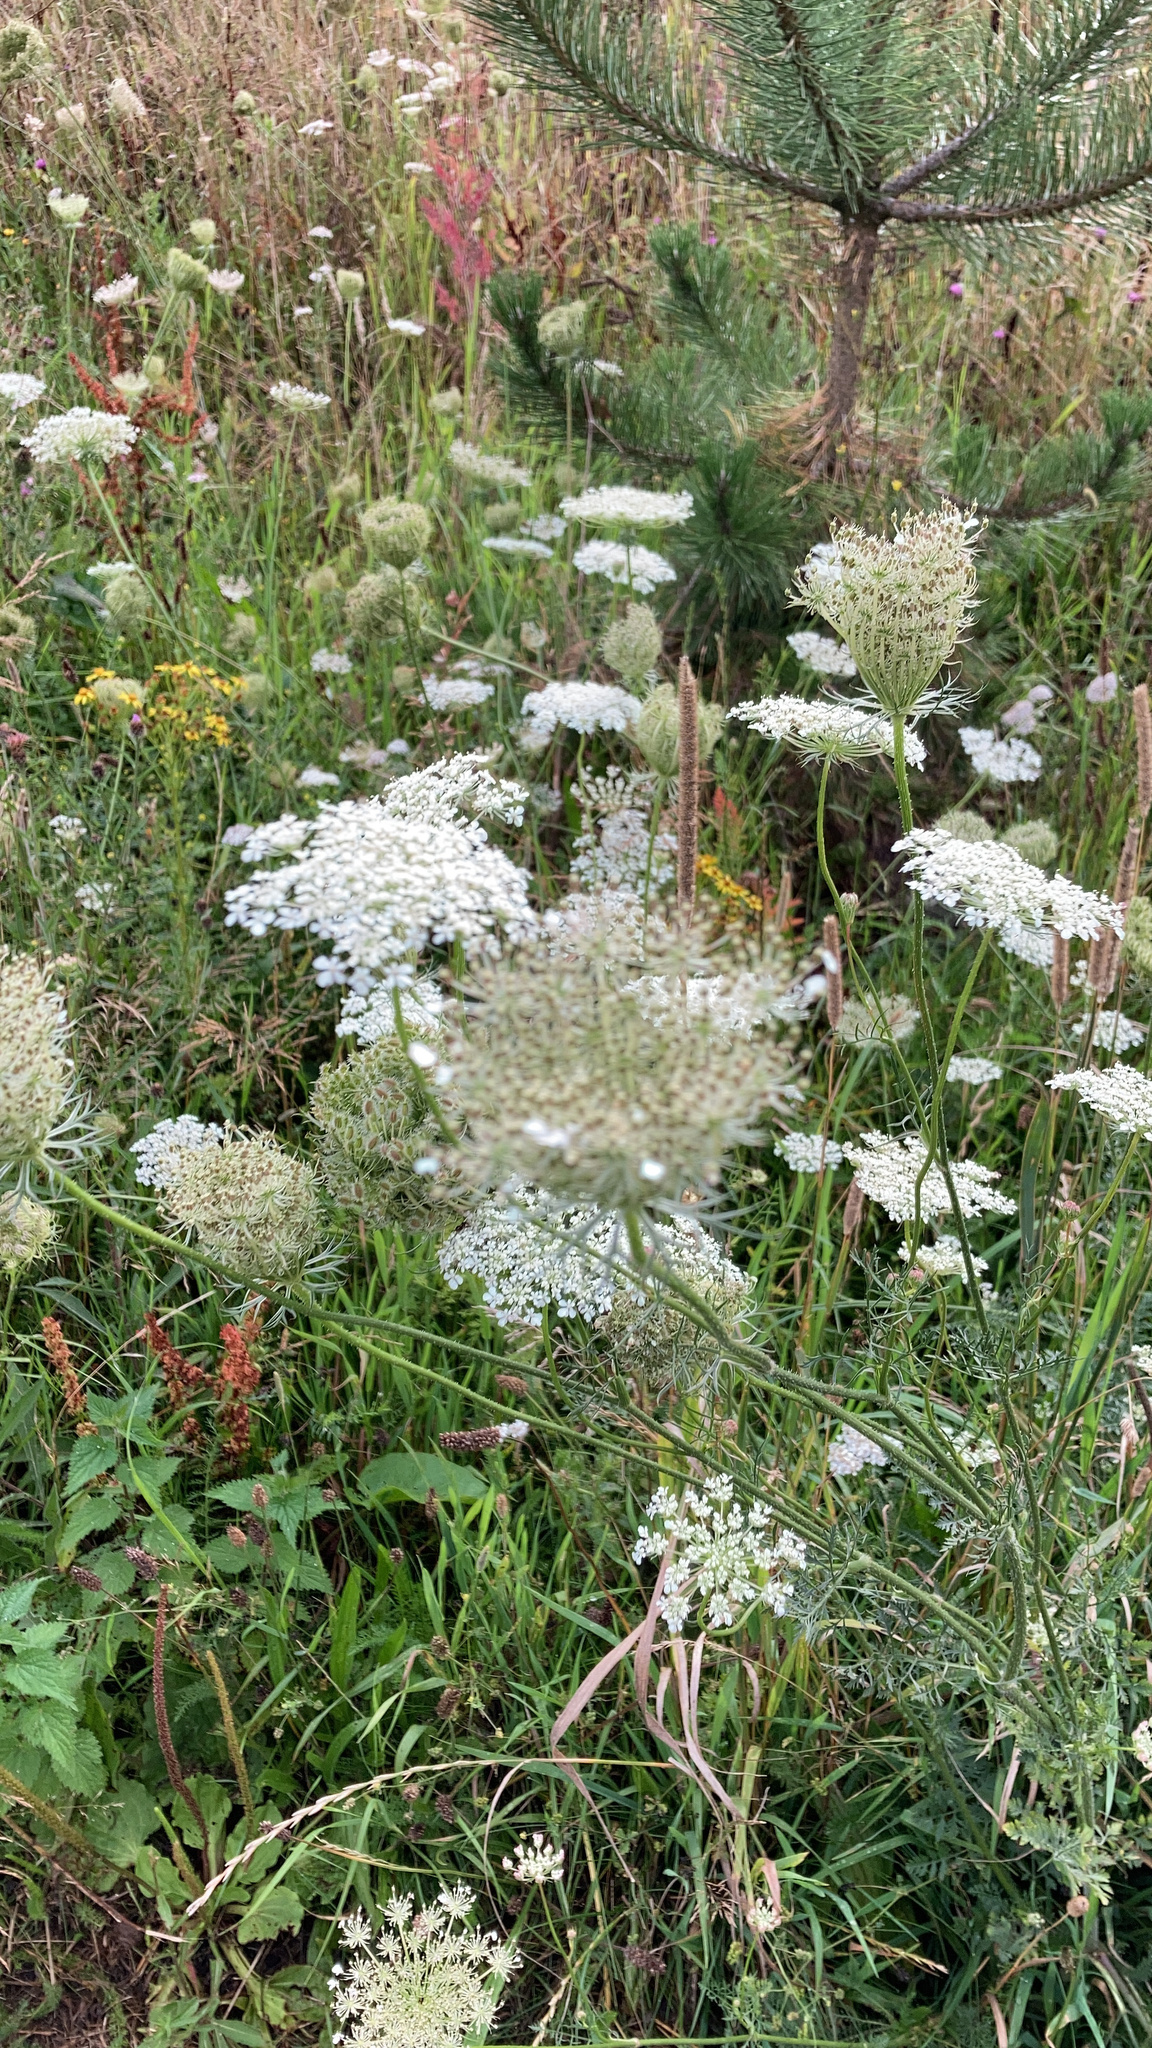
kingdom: Plantae
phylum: Tracheophyta
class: Magnoliopsida
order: Apiales
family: Apiaceae
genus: Daucus
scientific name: Daucus carota
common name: Wild carrot
